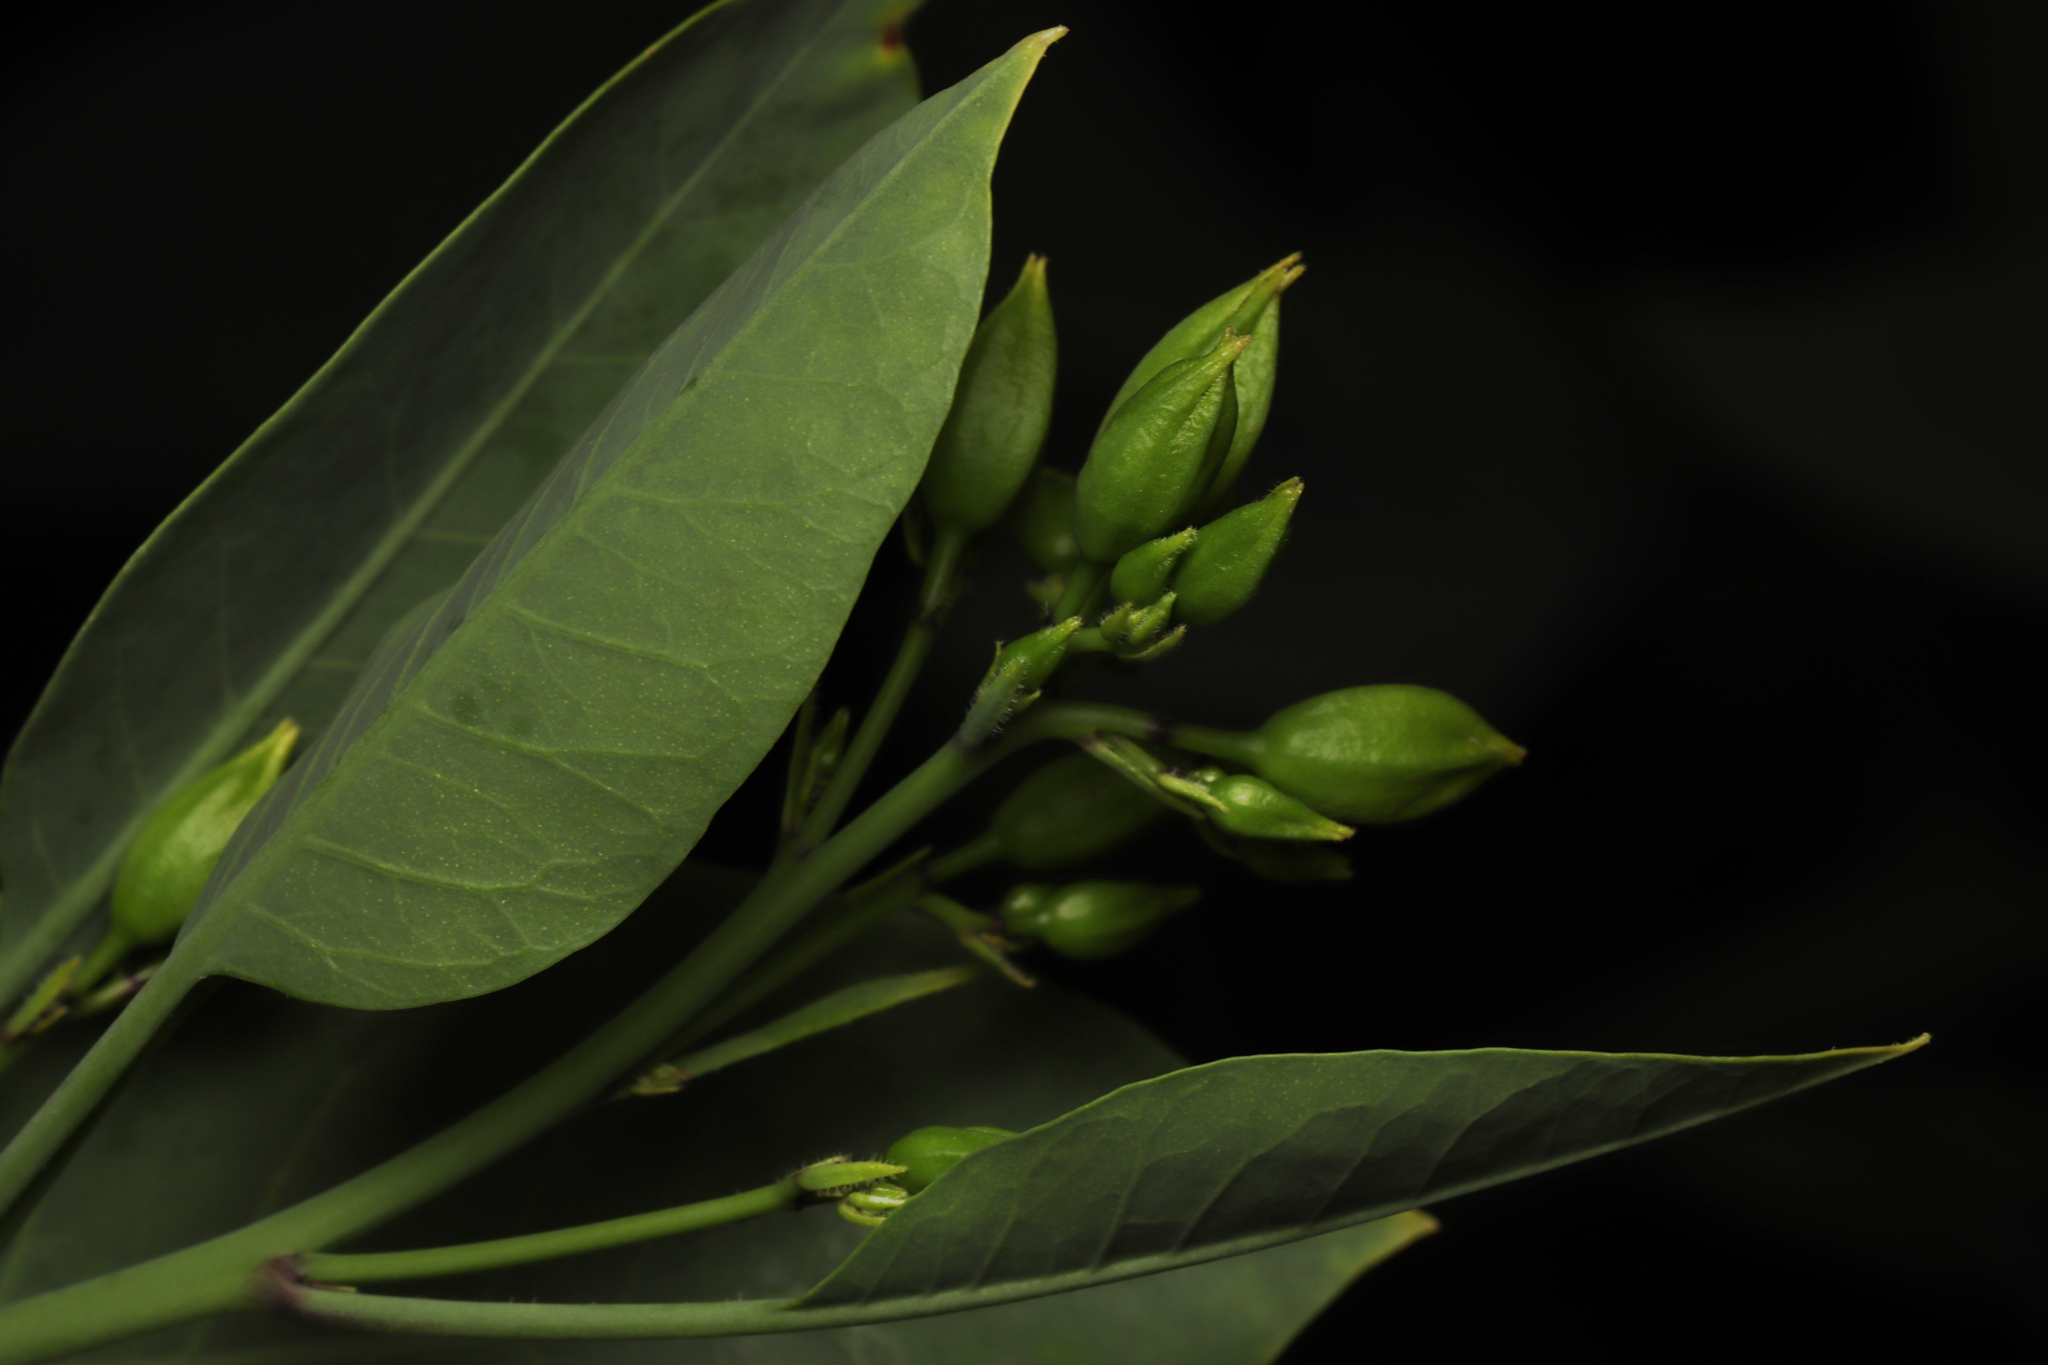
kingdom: Plantae
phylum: Tracheophyta
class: Magnoliopsida
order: Solanales
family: Solanaceae
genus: Nicotiana
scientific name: Nicotiana glauca
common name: Tree tobacco
